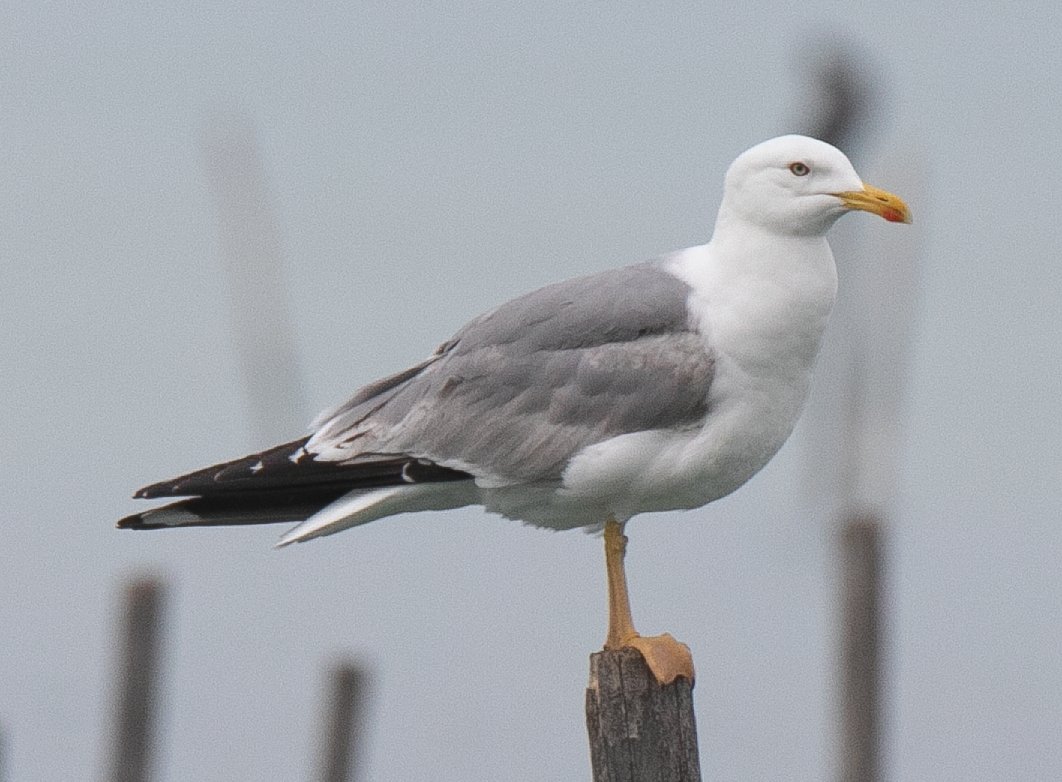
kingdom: Animalia
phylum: Chordata
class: Aves
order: Charadriiformes
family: Laridae
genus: Larus
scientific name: Larus michahellis
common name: Yellow-legged gull
